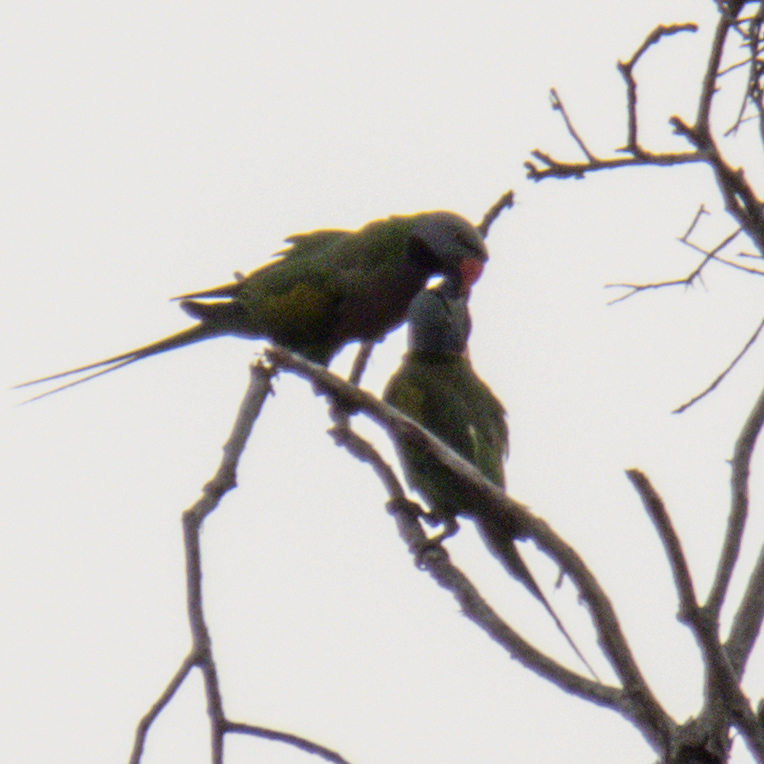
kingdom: Animalia
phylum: Chordata
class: Aves
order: Psittaciformes
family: Psittacidae
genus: Psittacula
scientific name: Psittacula alexandri
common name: Red-breasted parakeet
